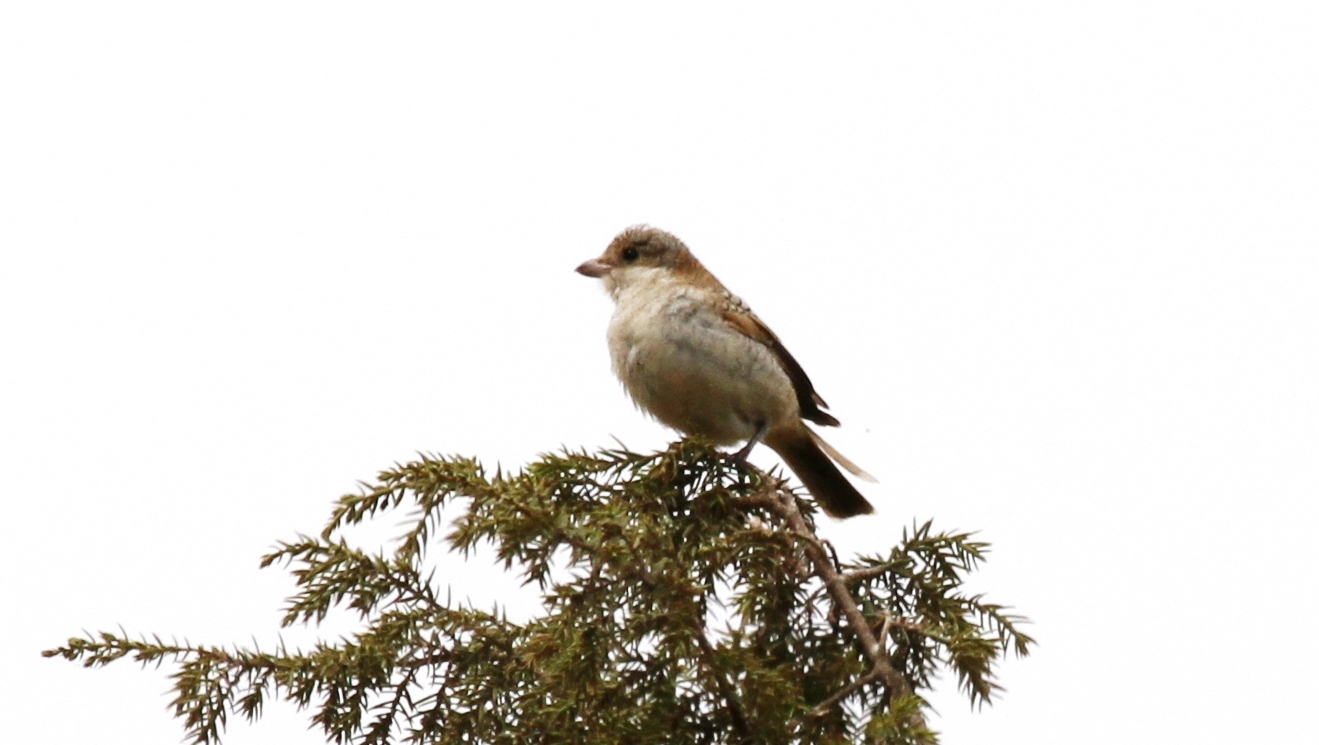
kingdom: Animalia
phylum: Chordata
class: Aves
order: Passeriformes
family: Laniidae
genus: Lanius
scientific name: Lanius senator
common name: Woodchat shrike
